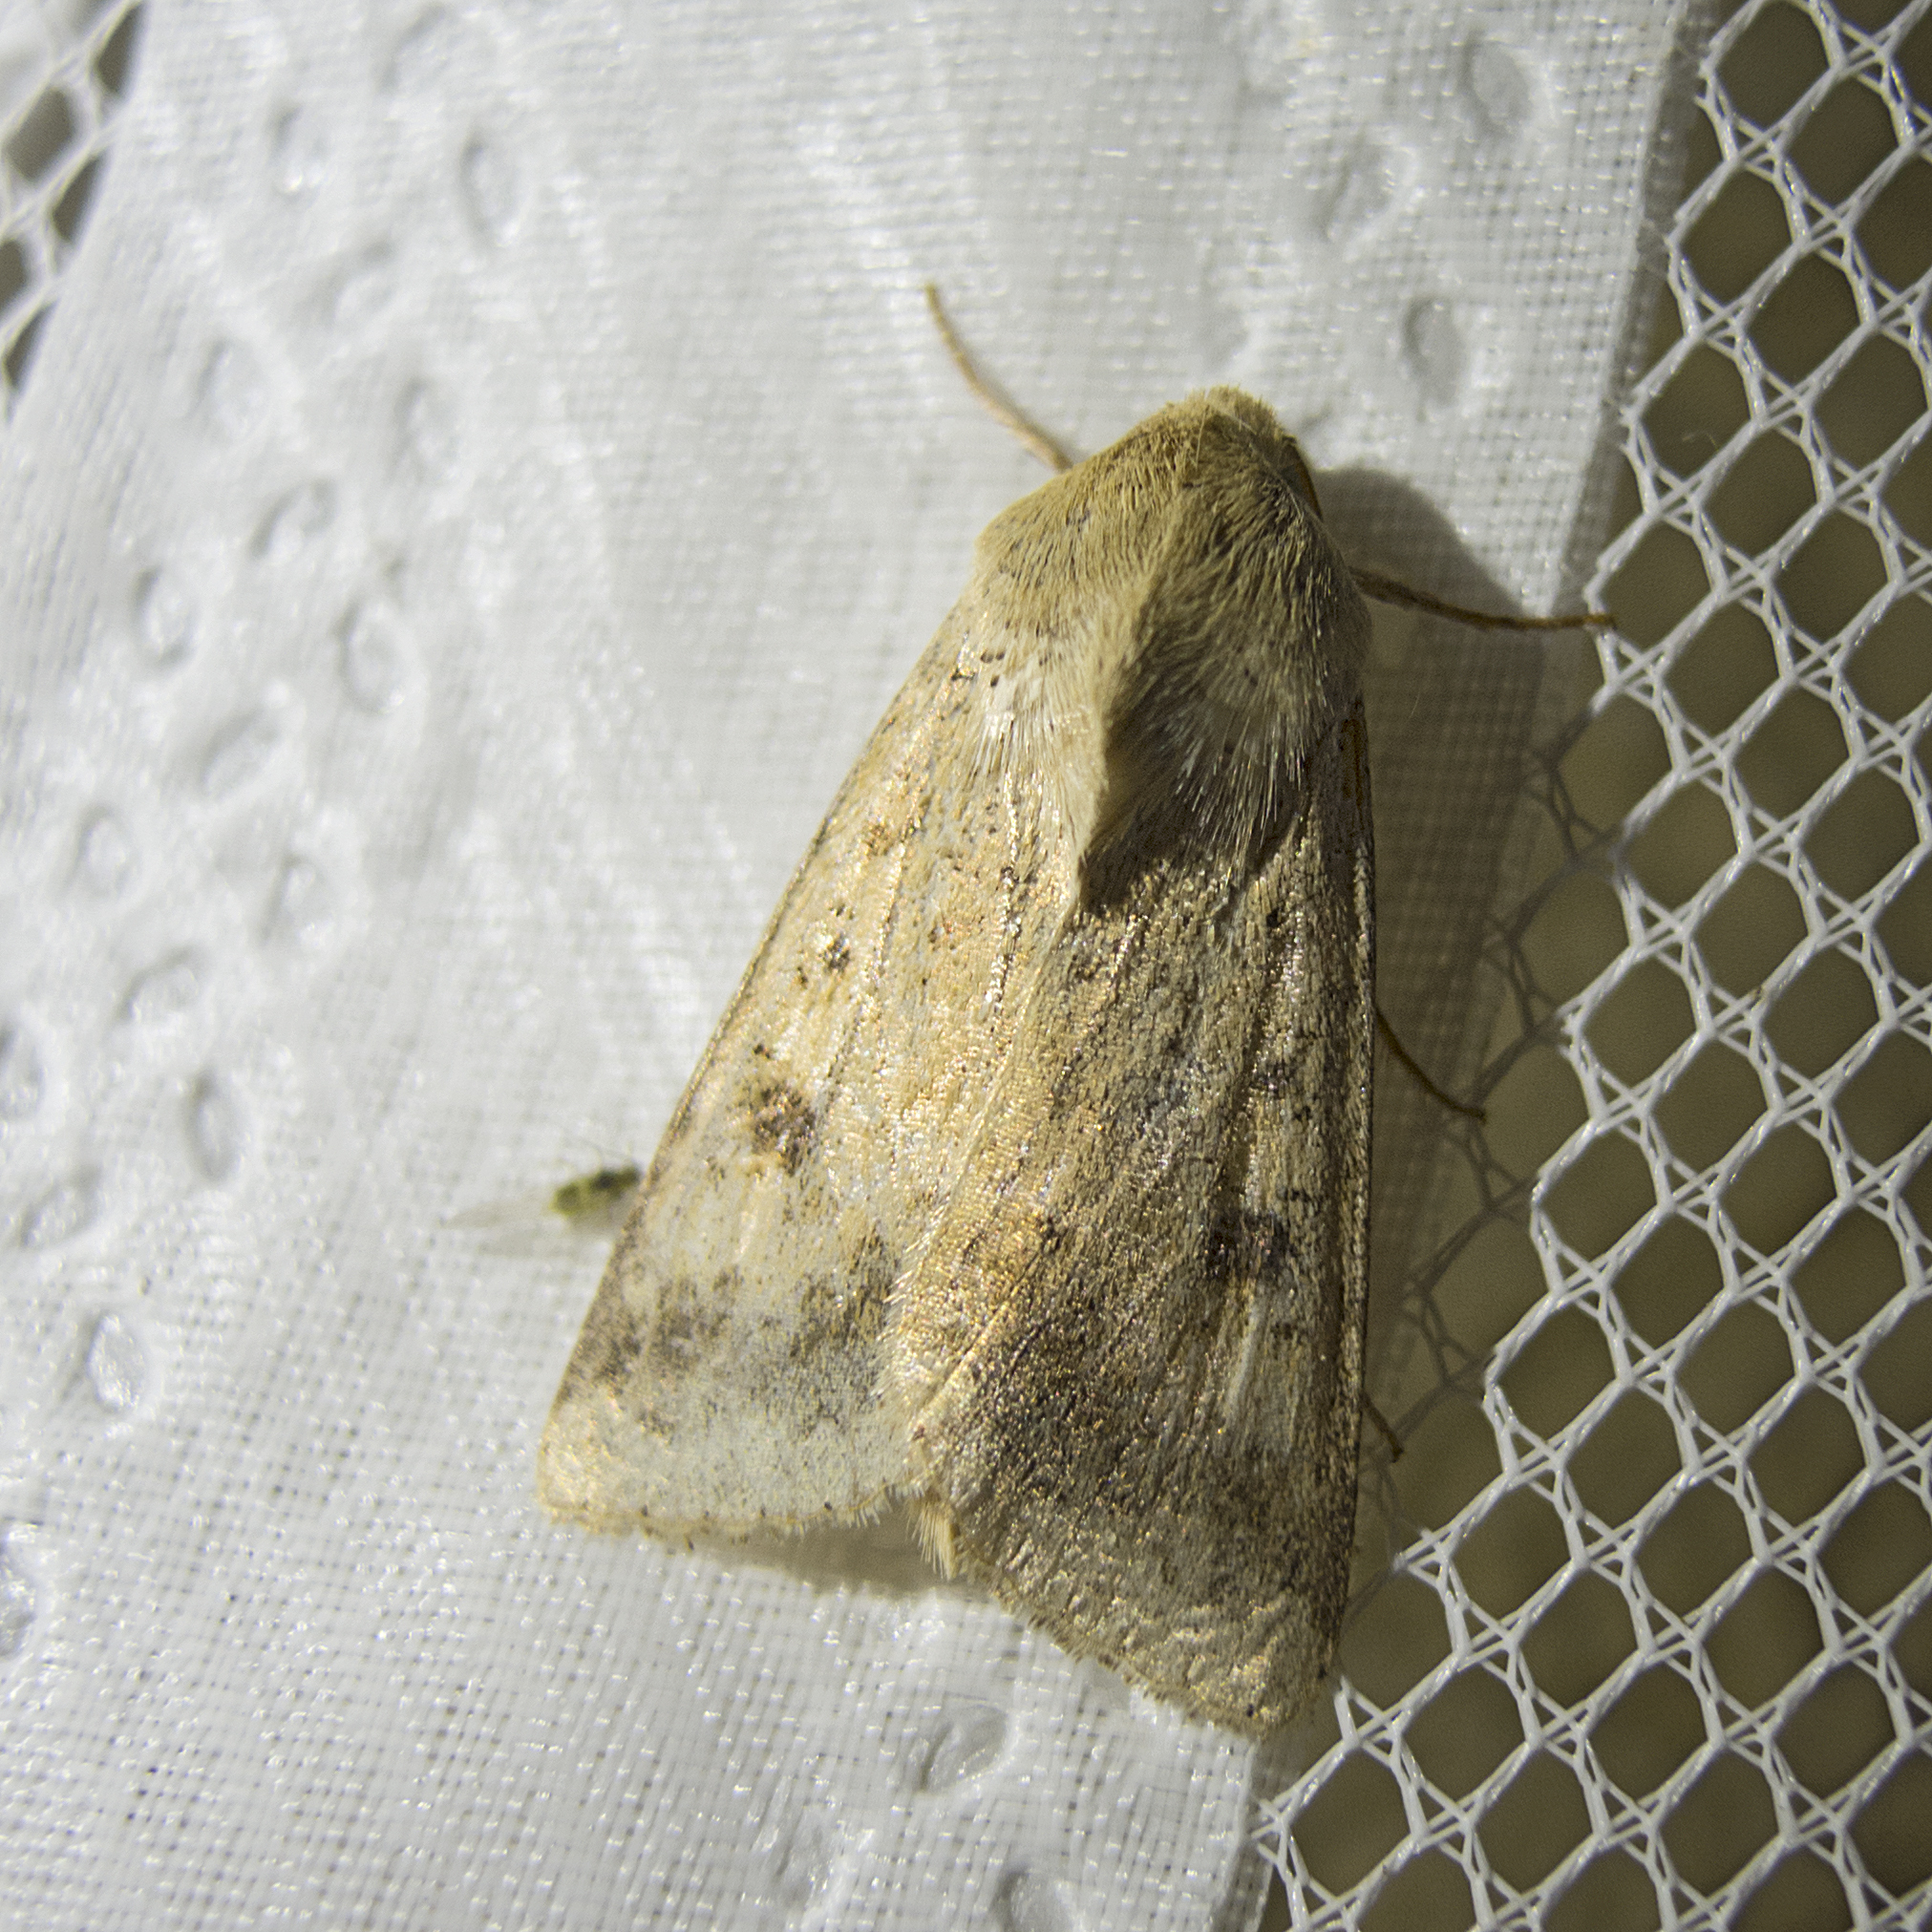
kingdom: Animalia
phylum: Arthropoda
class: Insecta
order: Lepidoptera
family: Noctuidae
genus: Helicoverpa
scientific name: Helicoverpa armigera
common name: Cotton bollworm
